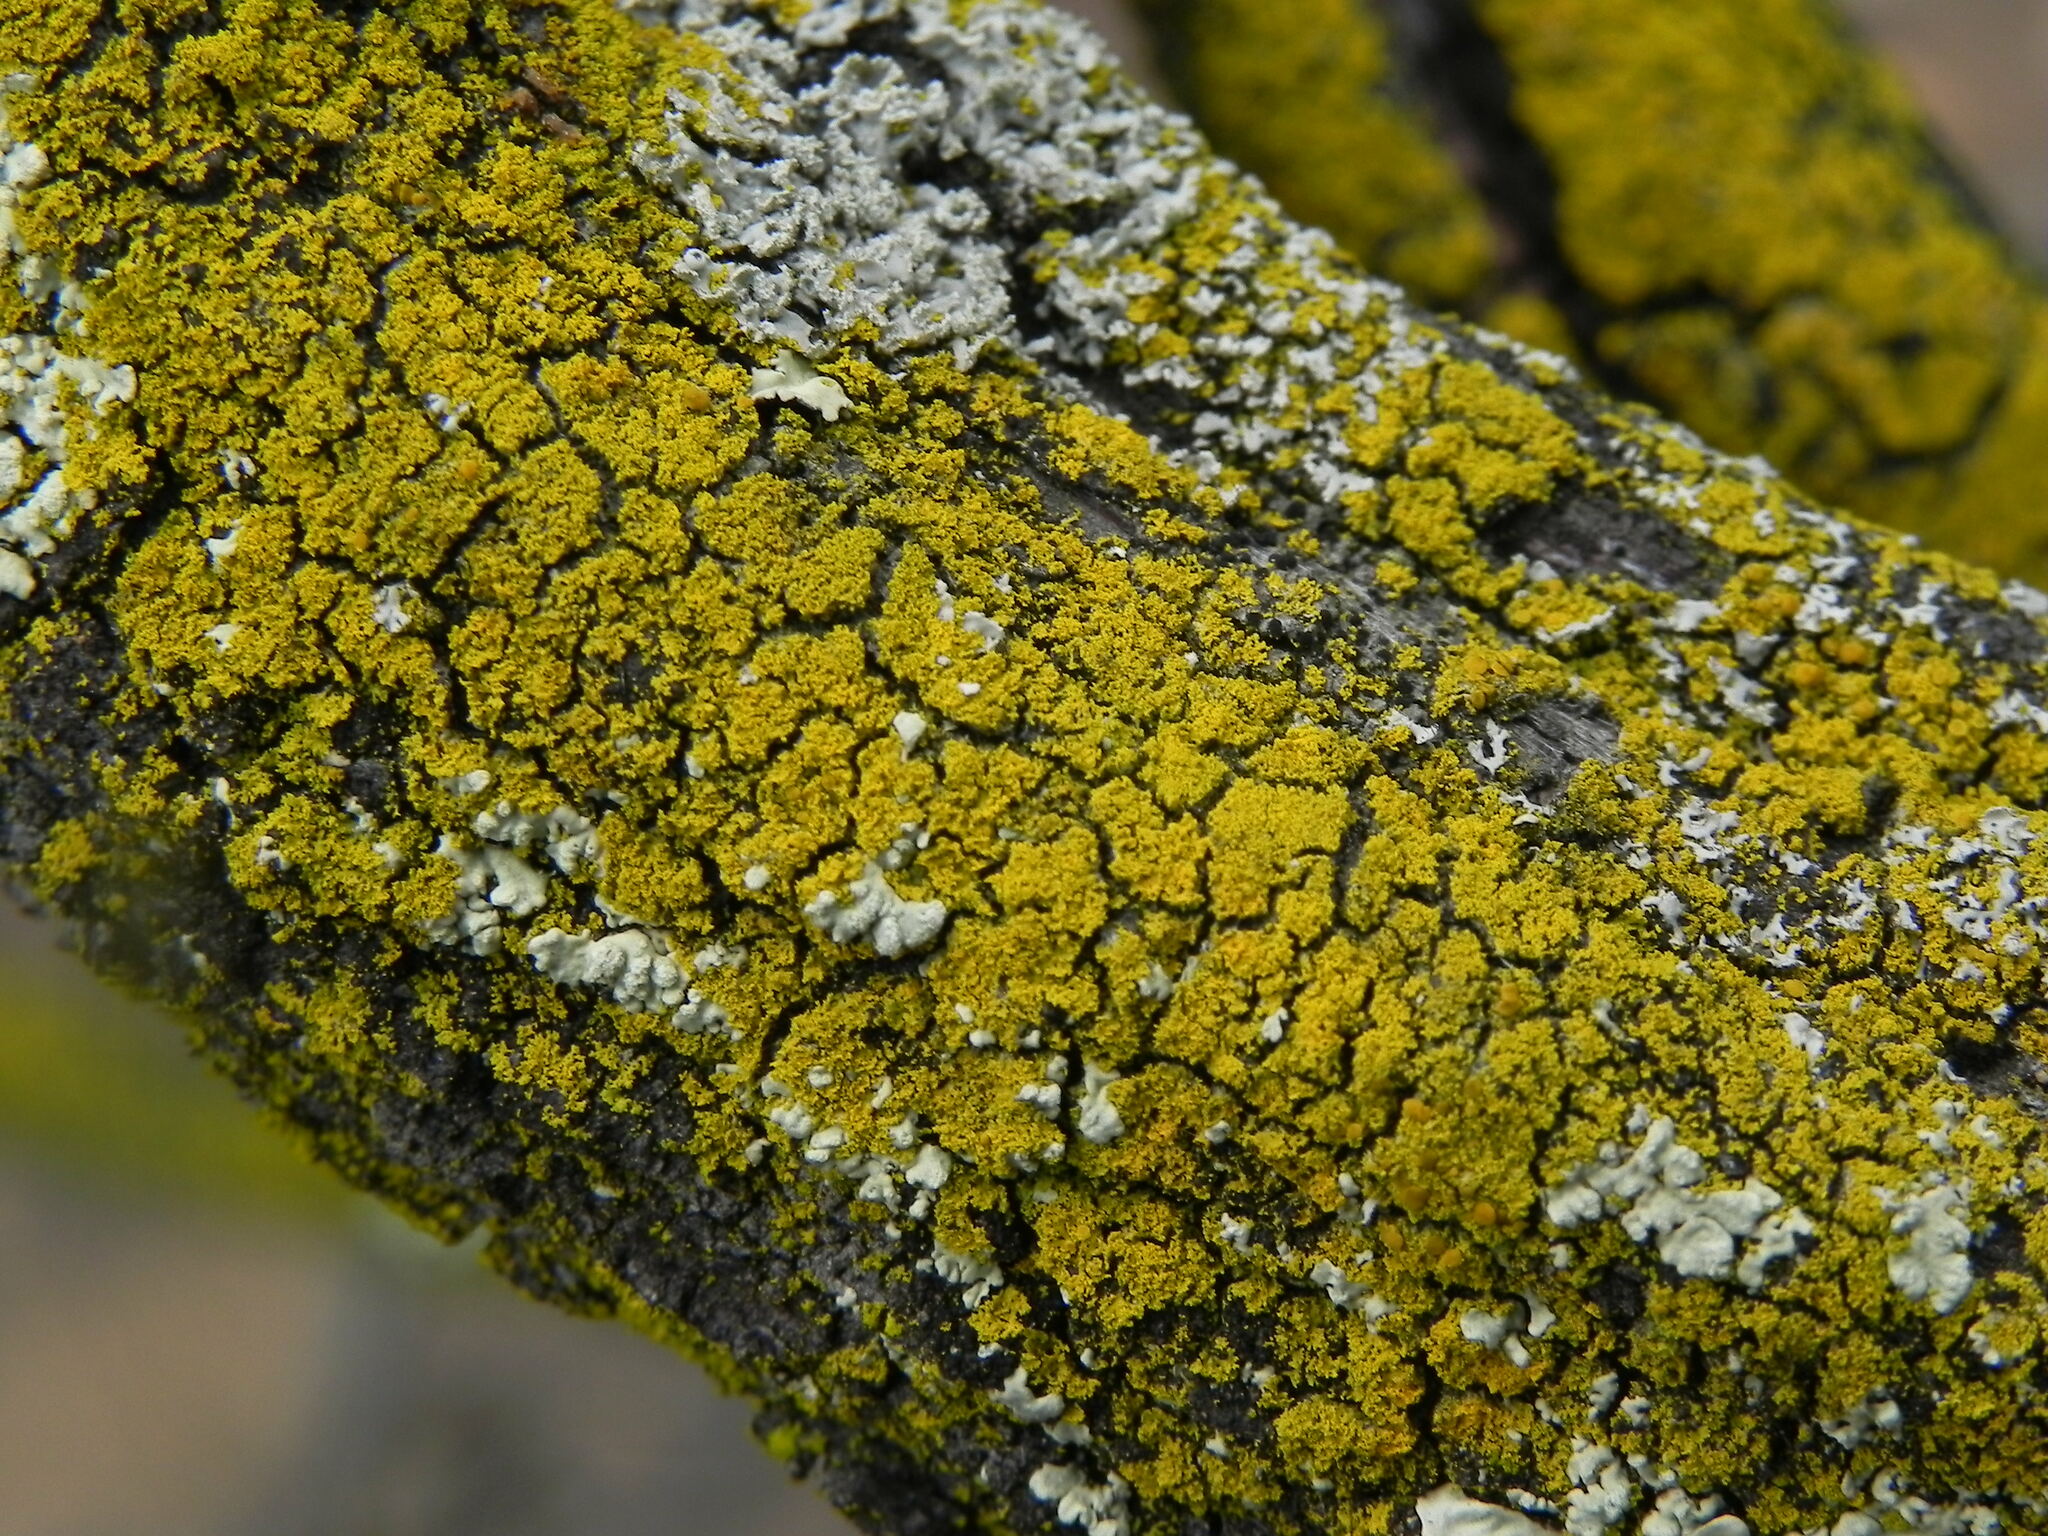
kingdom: Fungi
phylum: Ascomycota
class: Candelariomycetes
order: Candelariales
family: Candelariaceae
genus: Candelaria
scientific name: Candelaria pacifica
